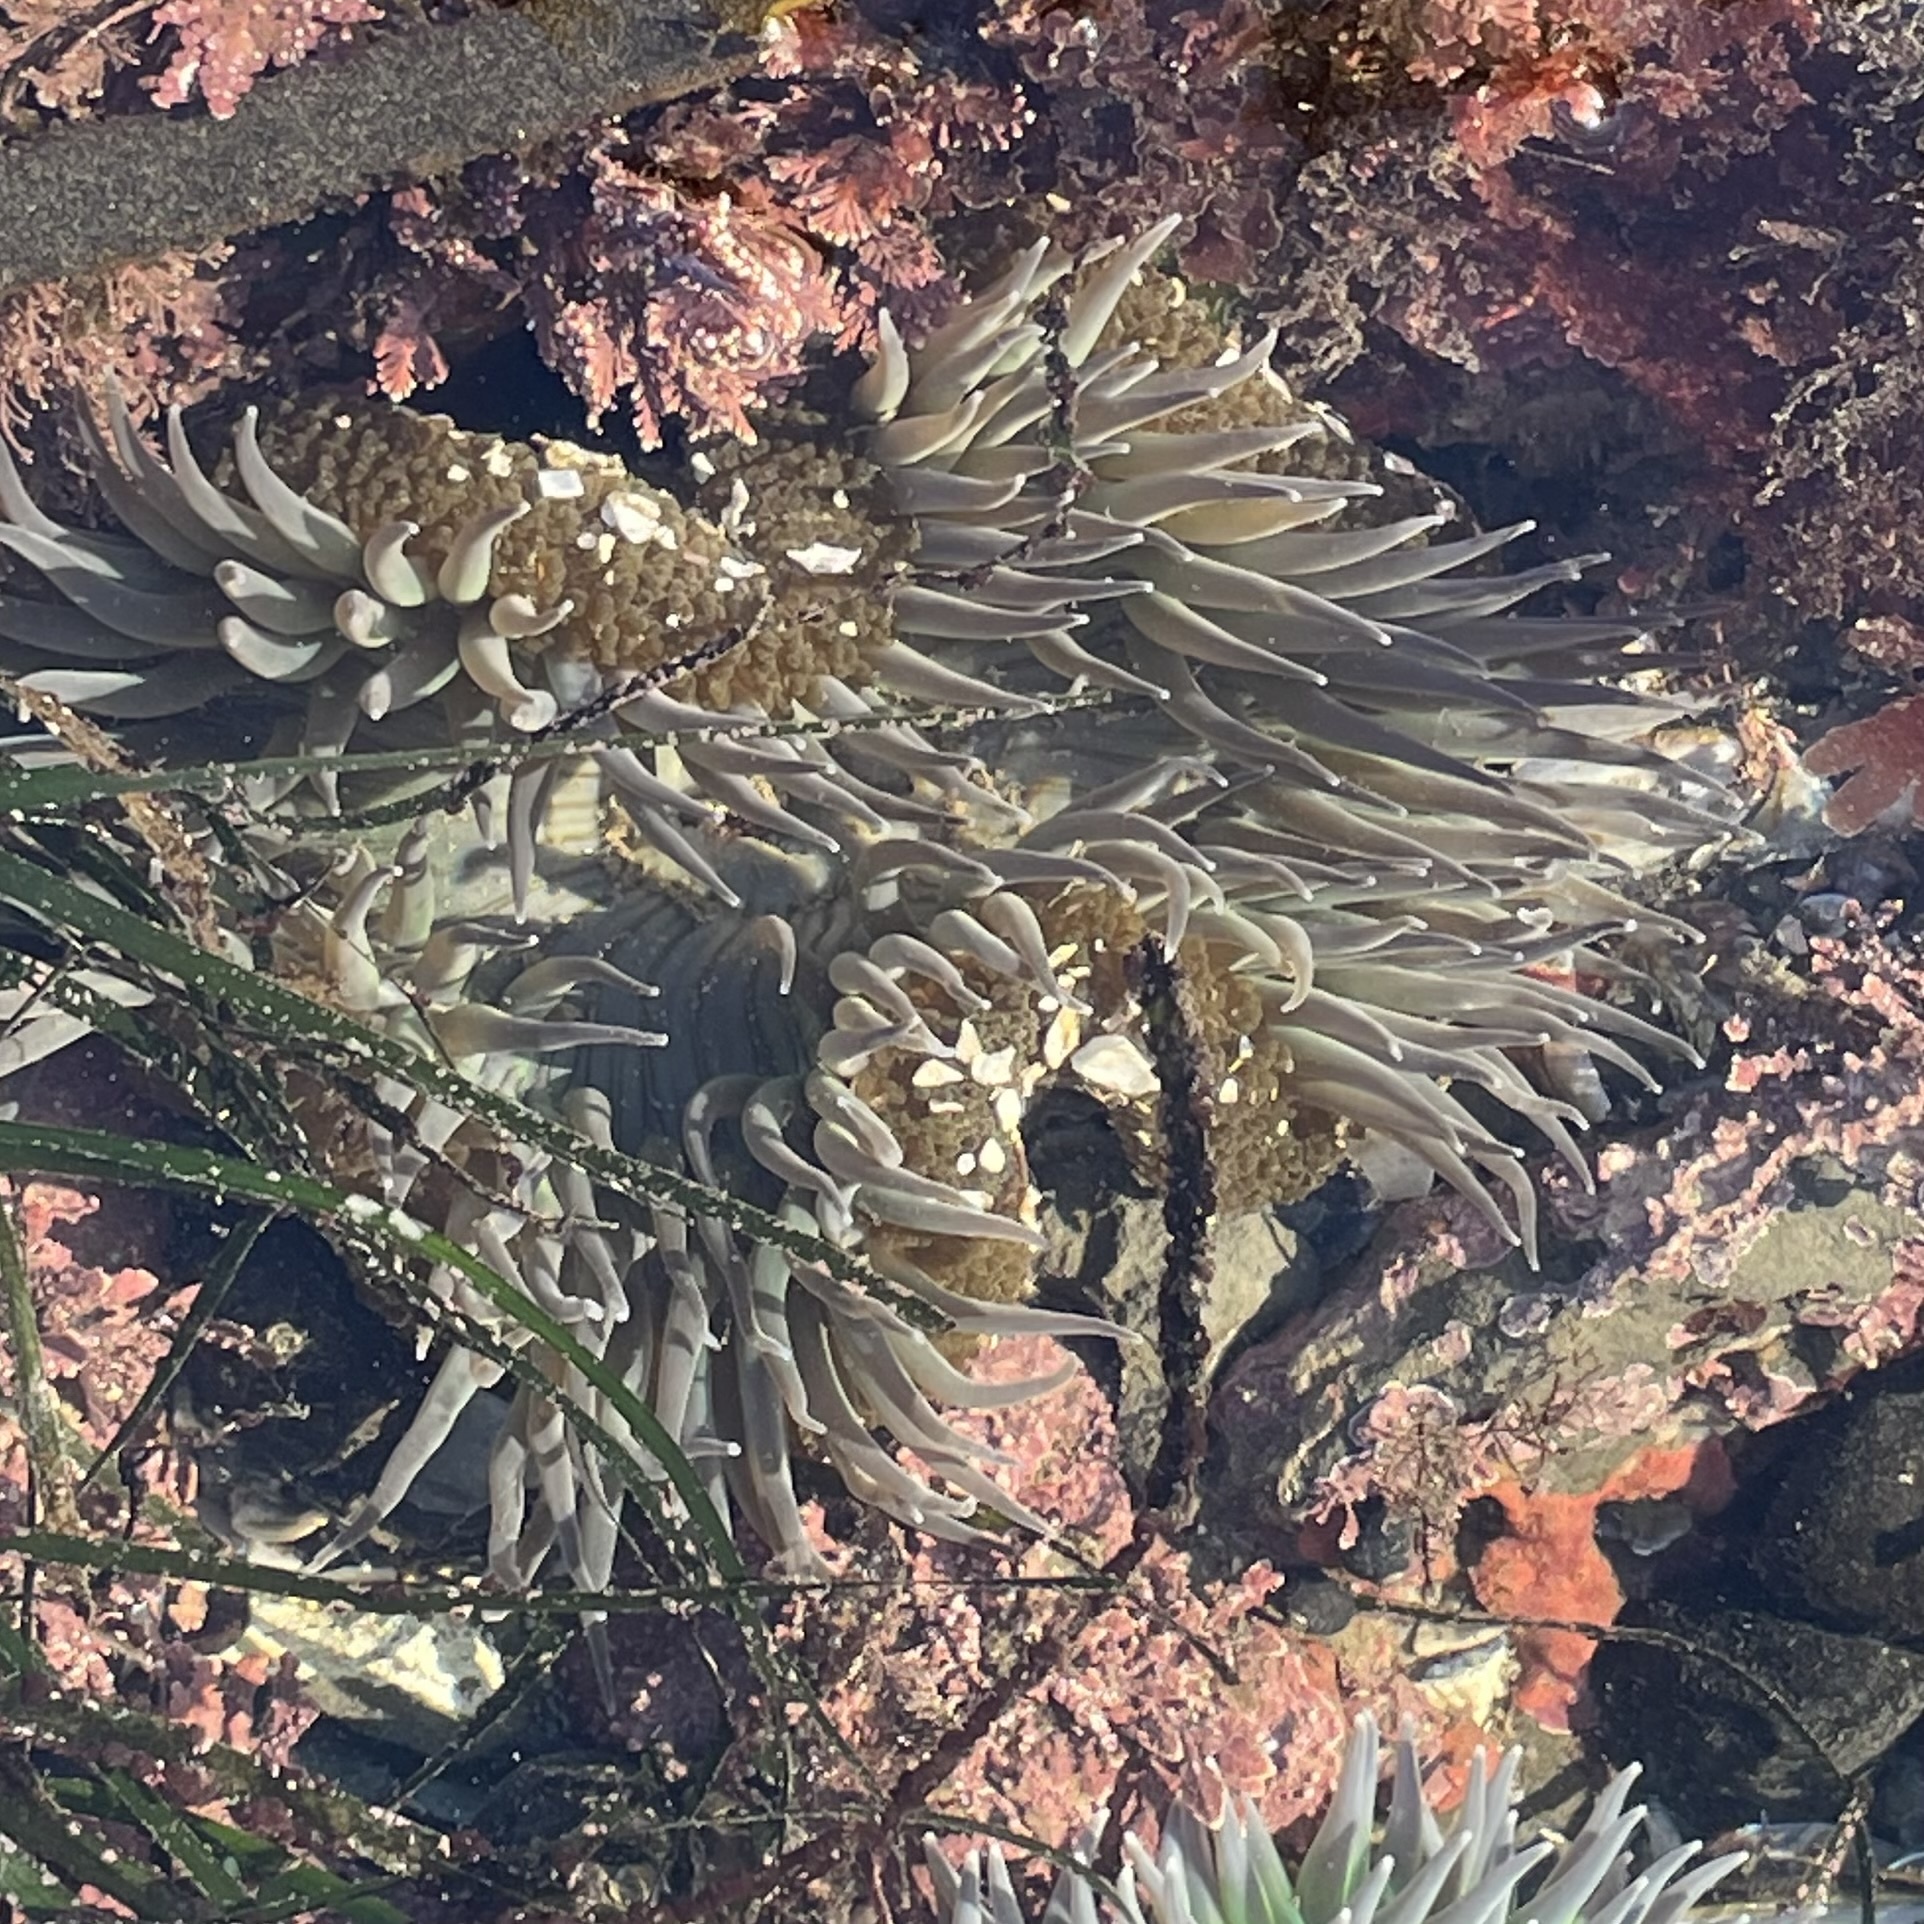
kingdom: Animalia
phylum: Cnidaria
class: Anthozoa
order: Actiniaria
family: Actiniidae
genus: Anthopleura
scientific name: Anthopleura sola
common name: Sun anemone
